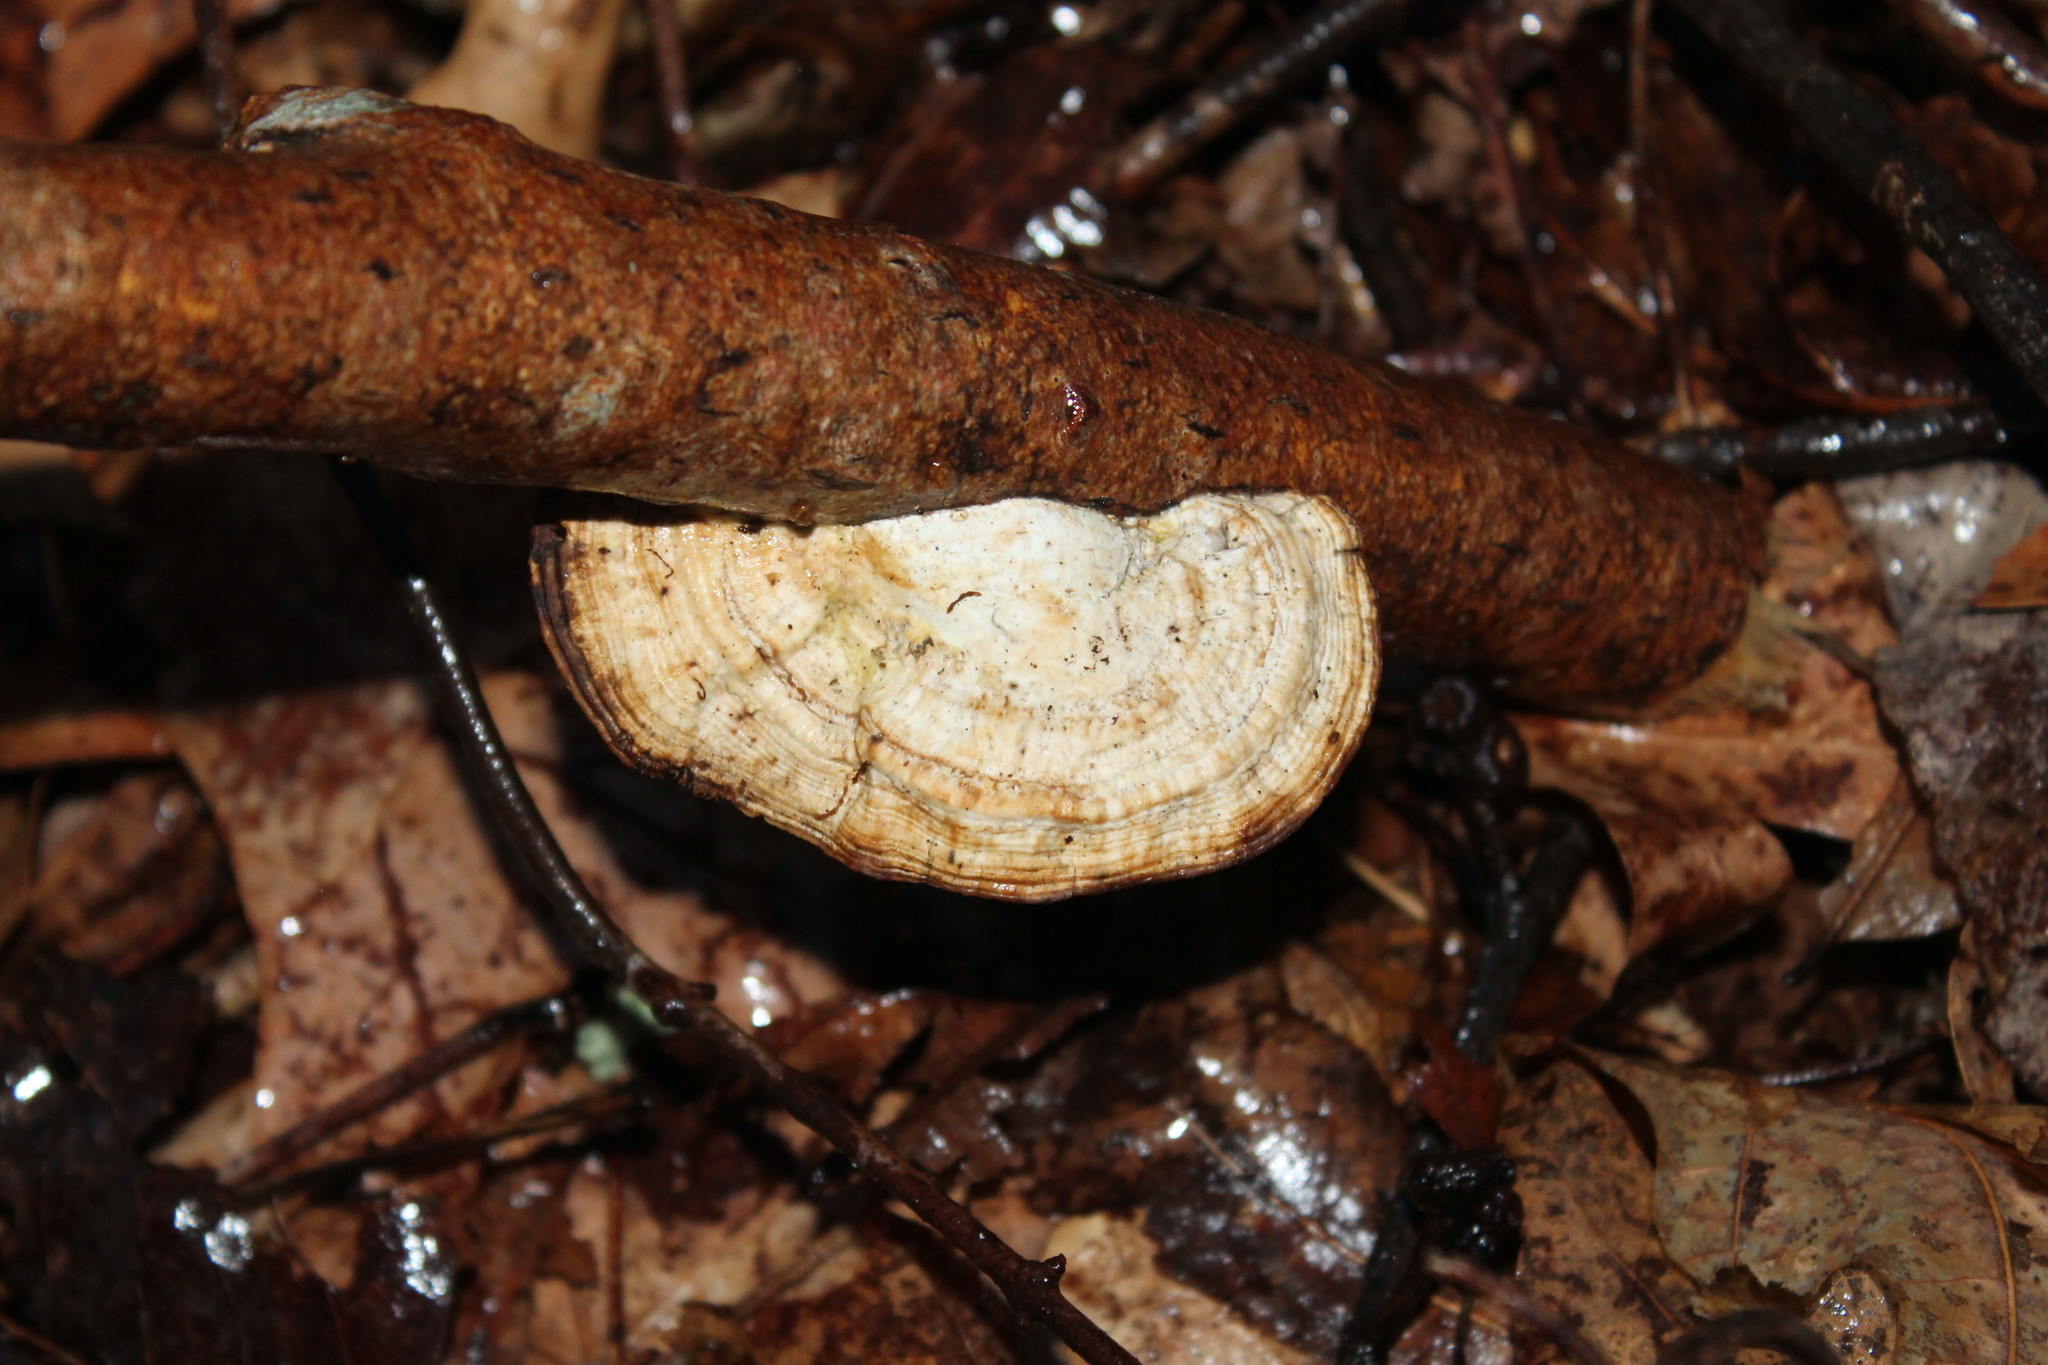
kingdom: Fungi
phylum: Basidiomycota
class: Agaricomycetes
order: Polyporales
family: Polyporaceae
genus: Daedaleopsis
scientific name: Daedaleopsis confragosa
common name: Blushing bracket
